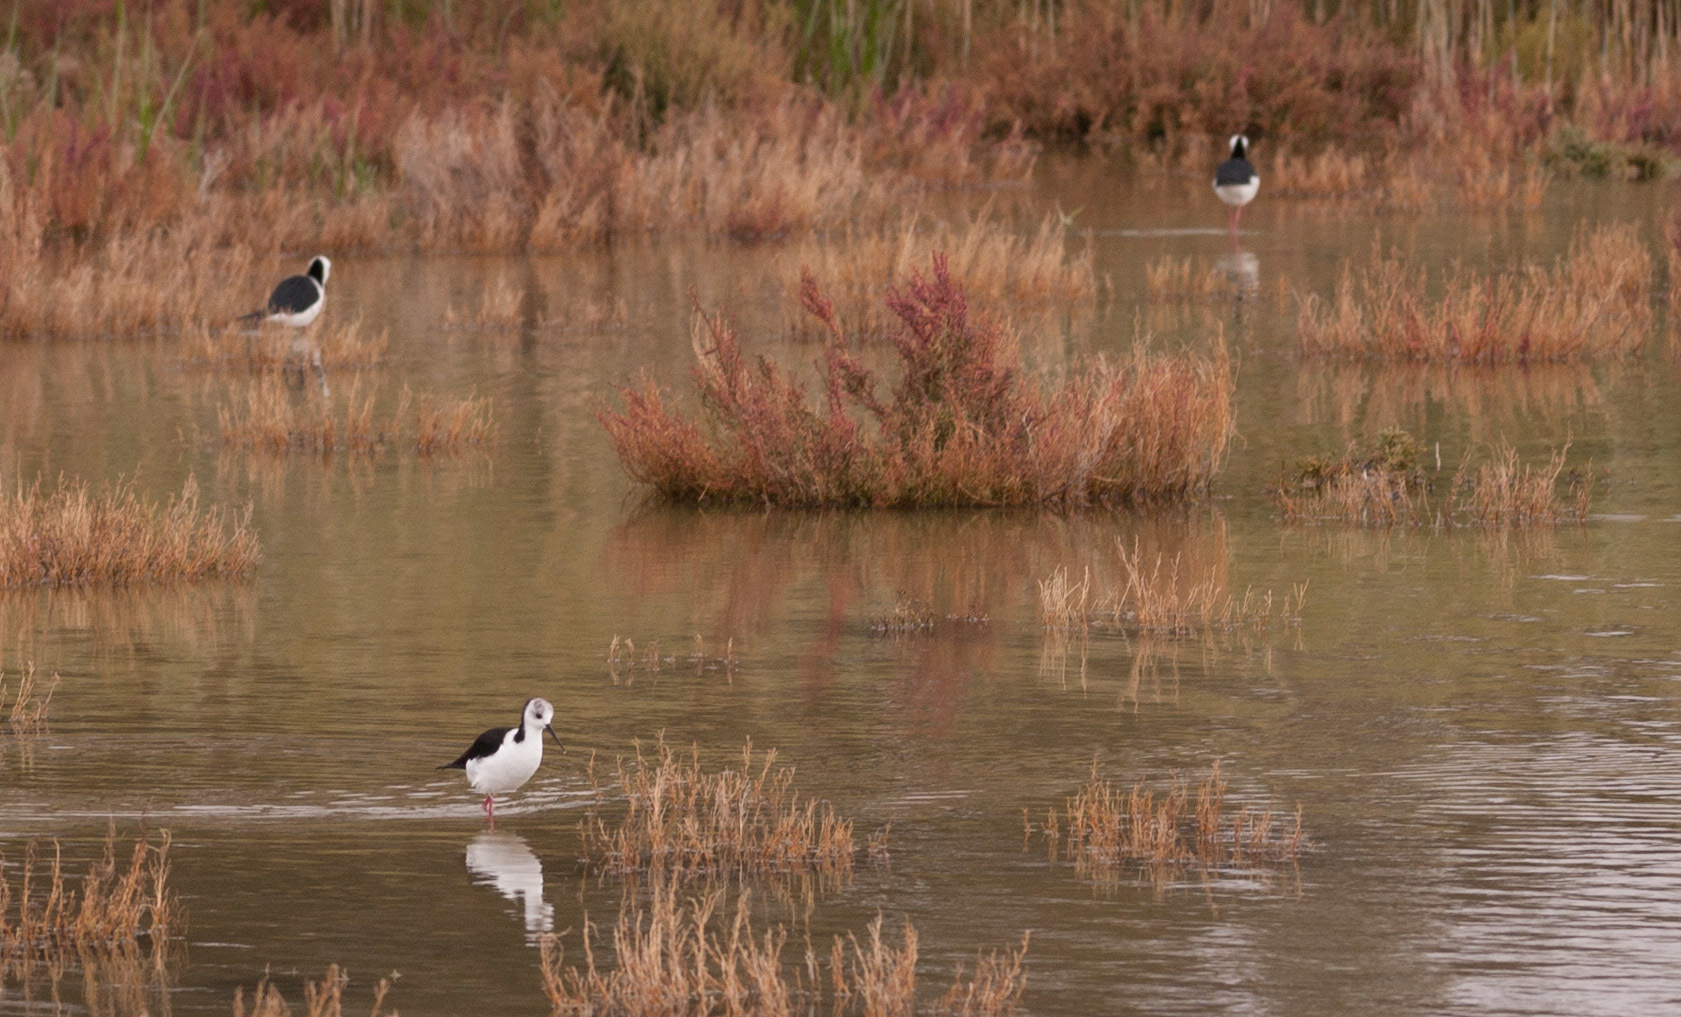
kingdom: Animalia
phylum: Chordata
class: Aves
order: Charadriiformes
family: Recurvirostridae
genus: Himantopus
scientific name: Himantopus leucocephalus
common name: White-headed stilt
